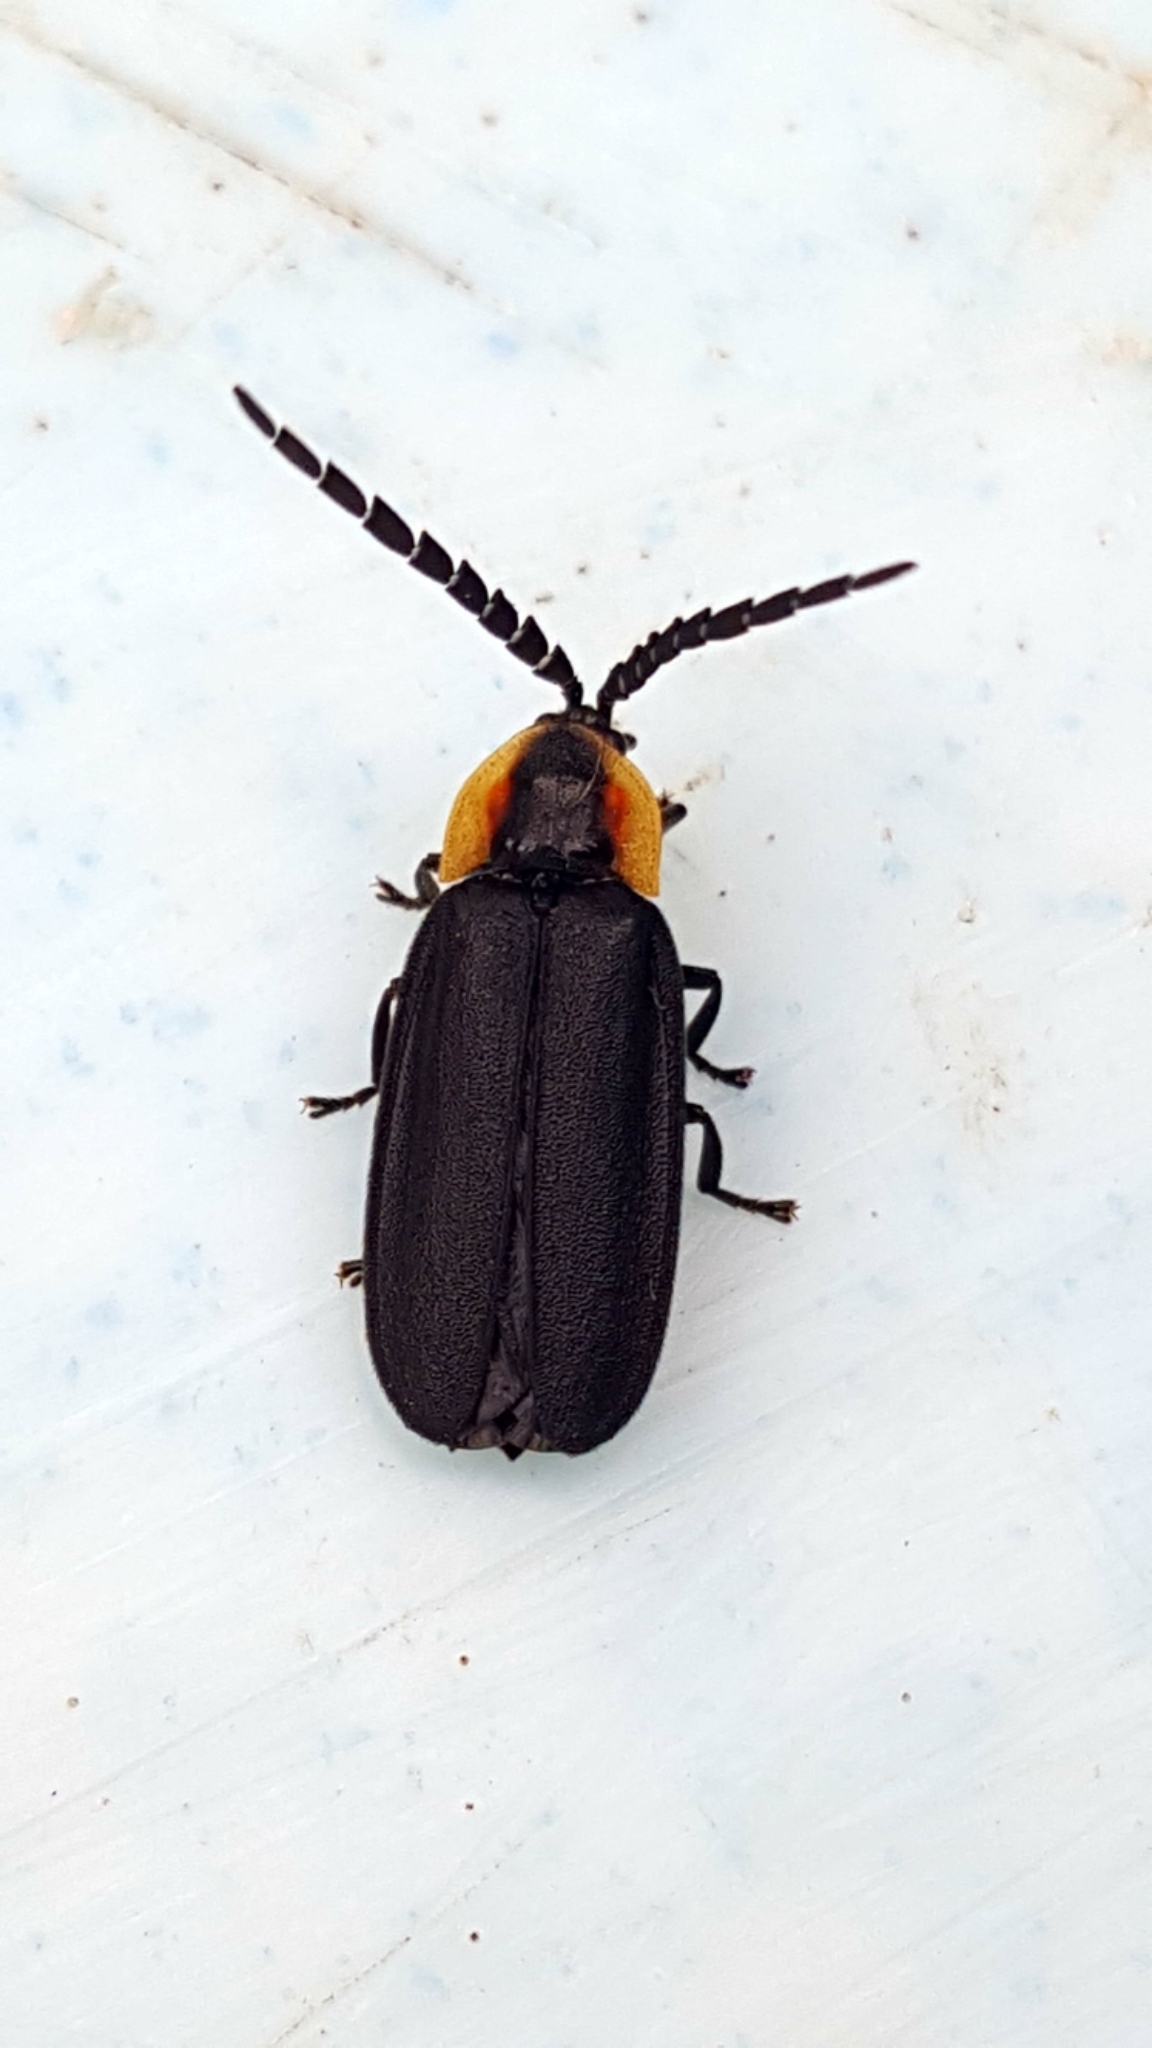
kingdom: Animalia
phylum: Arthropoda
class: Insecta
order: Coleoptera
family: Lampyridae
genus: Lucidota
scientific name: Lucidota atra
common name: Black firefly
